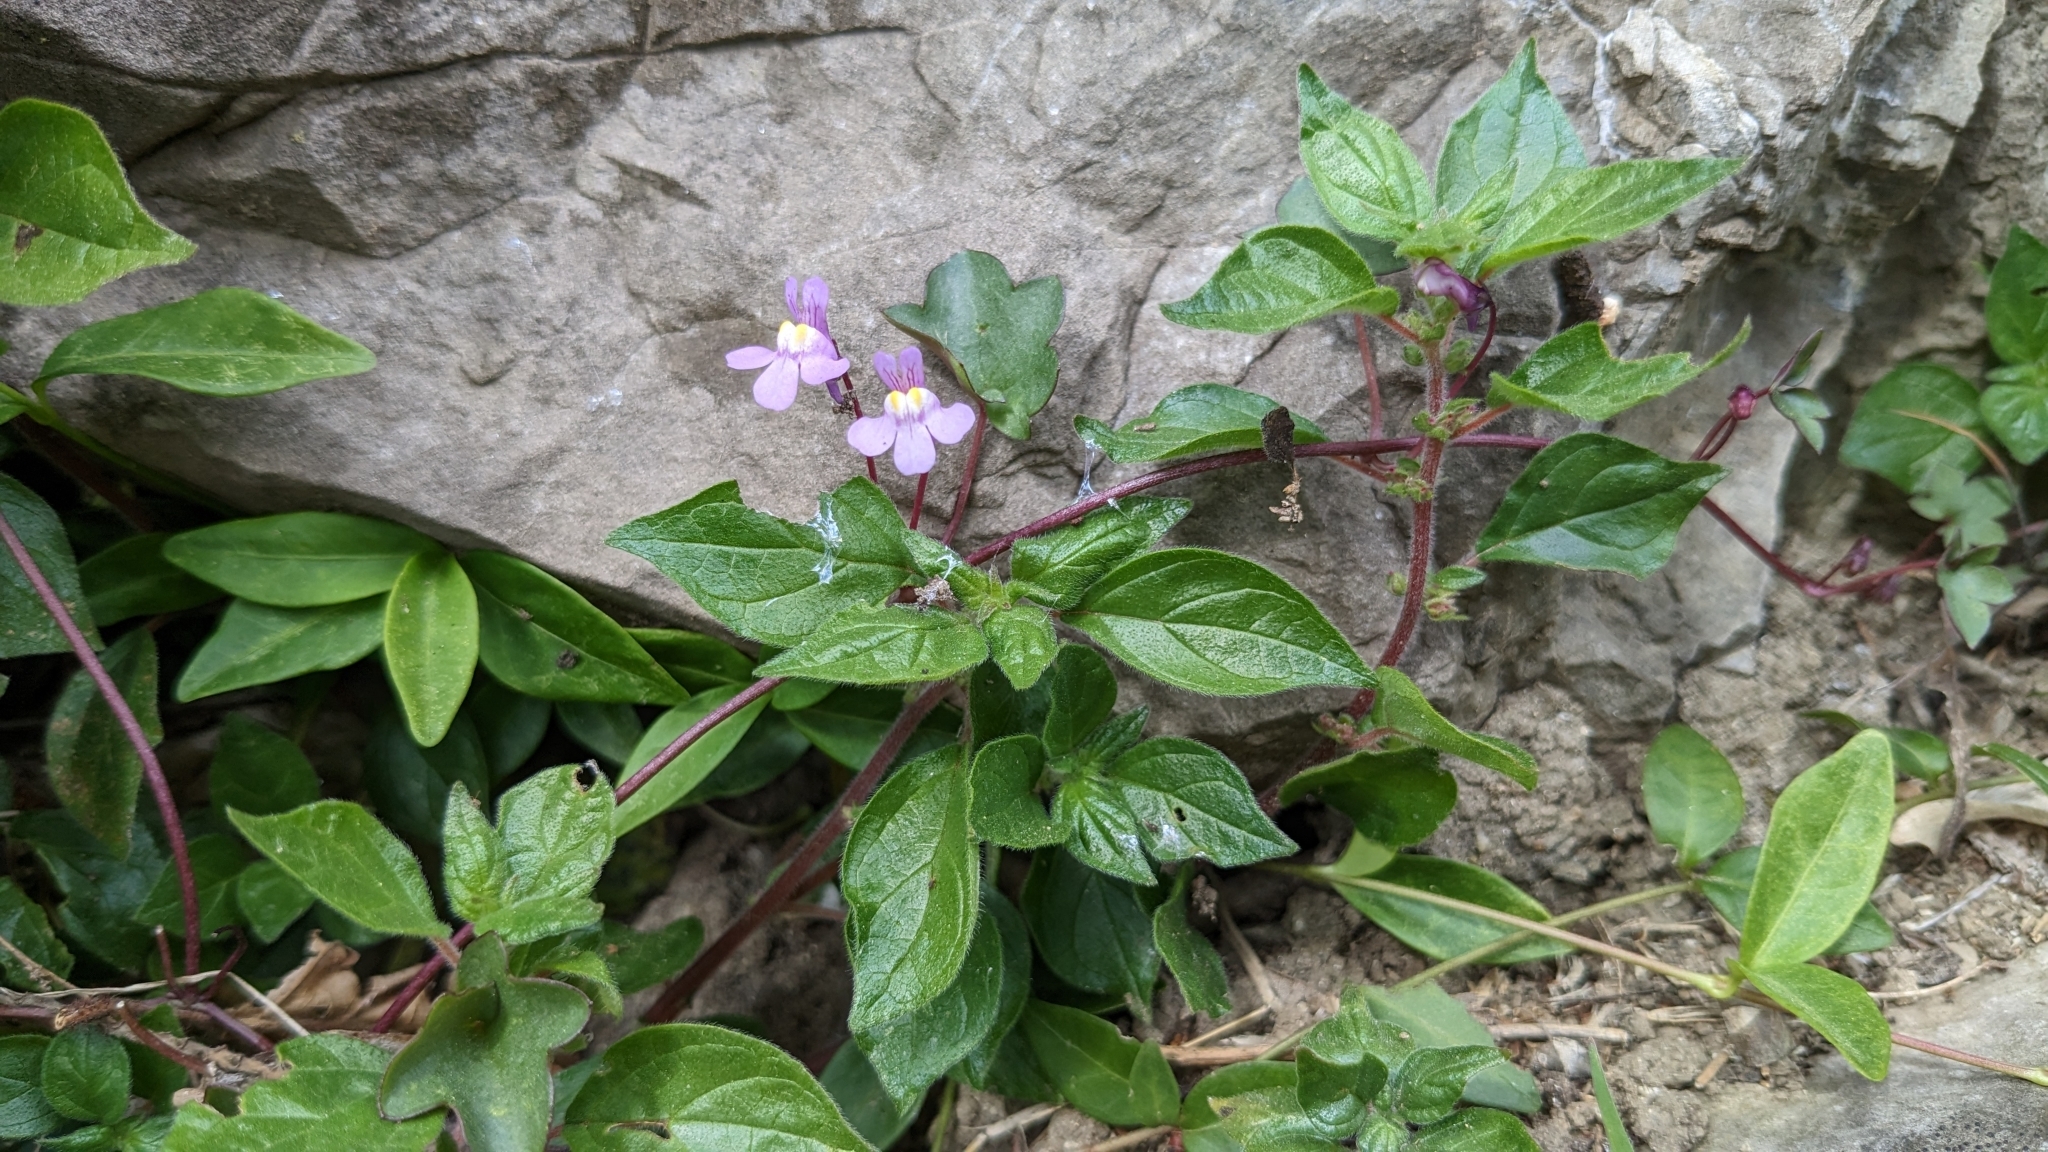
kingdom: Plantae
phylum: Tracheophyta
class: Magnoliopsida
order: Lamiales
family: Plantaginaceae
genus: Cymbalaria
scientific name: Cymbalaria muralis
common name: Ivy-leaved toadflax
